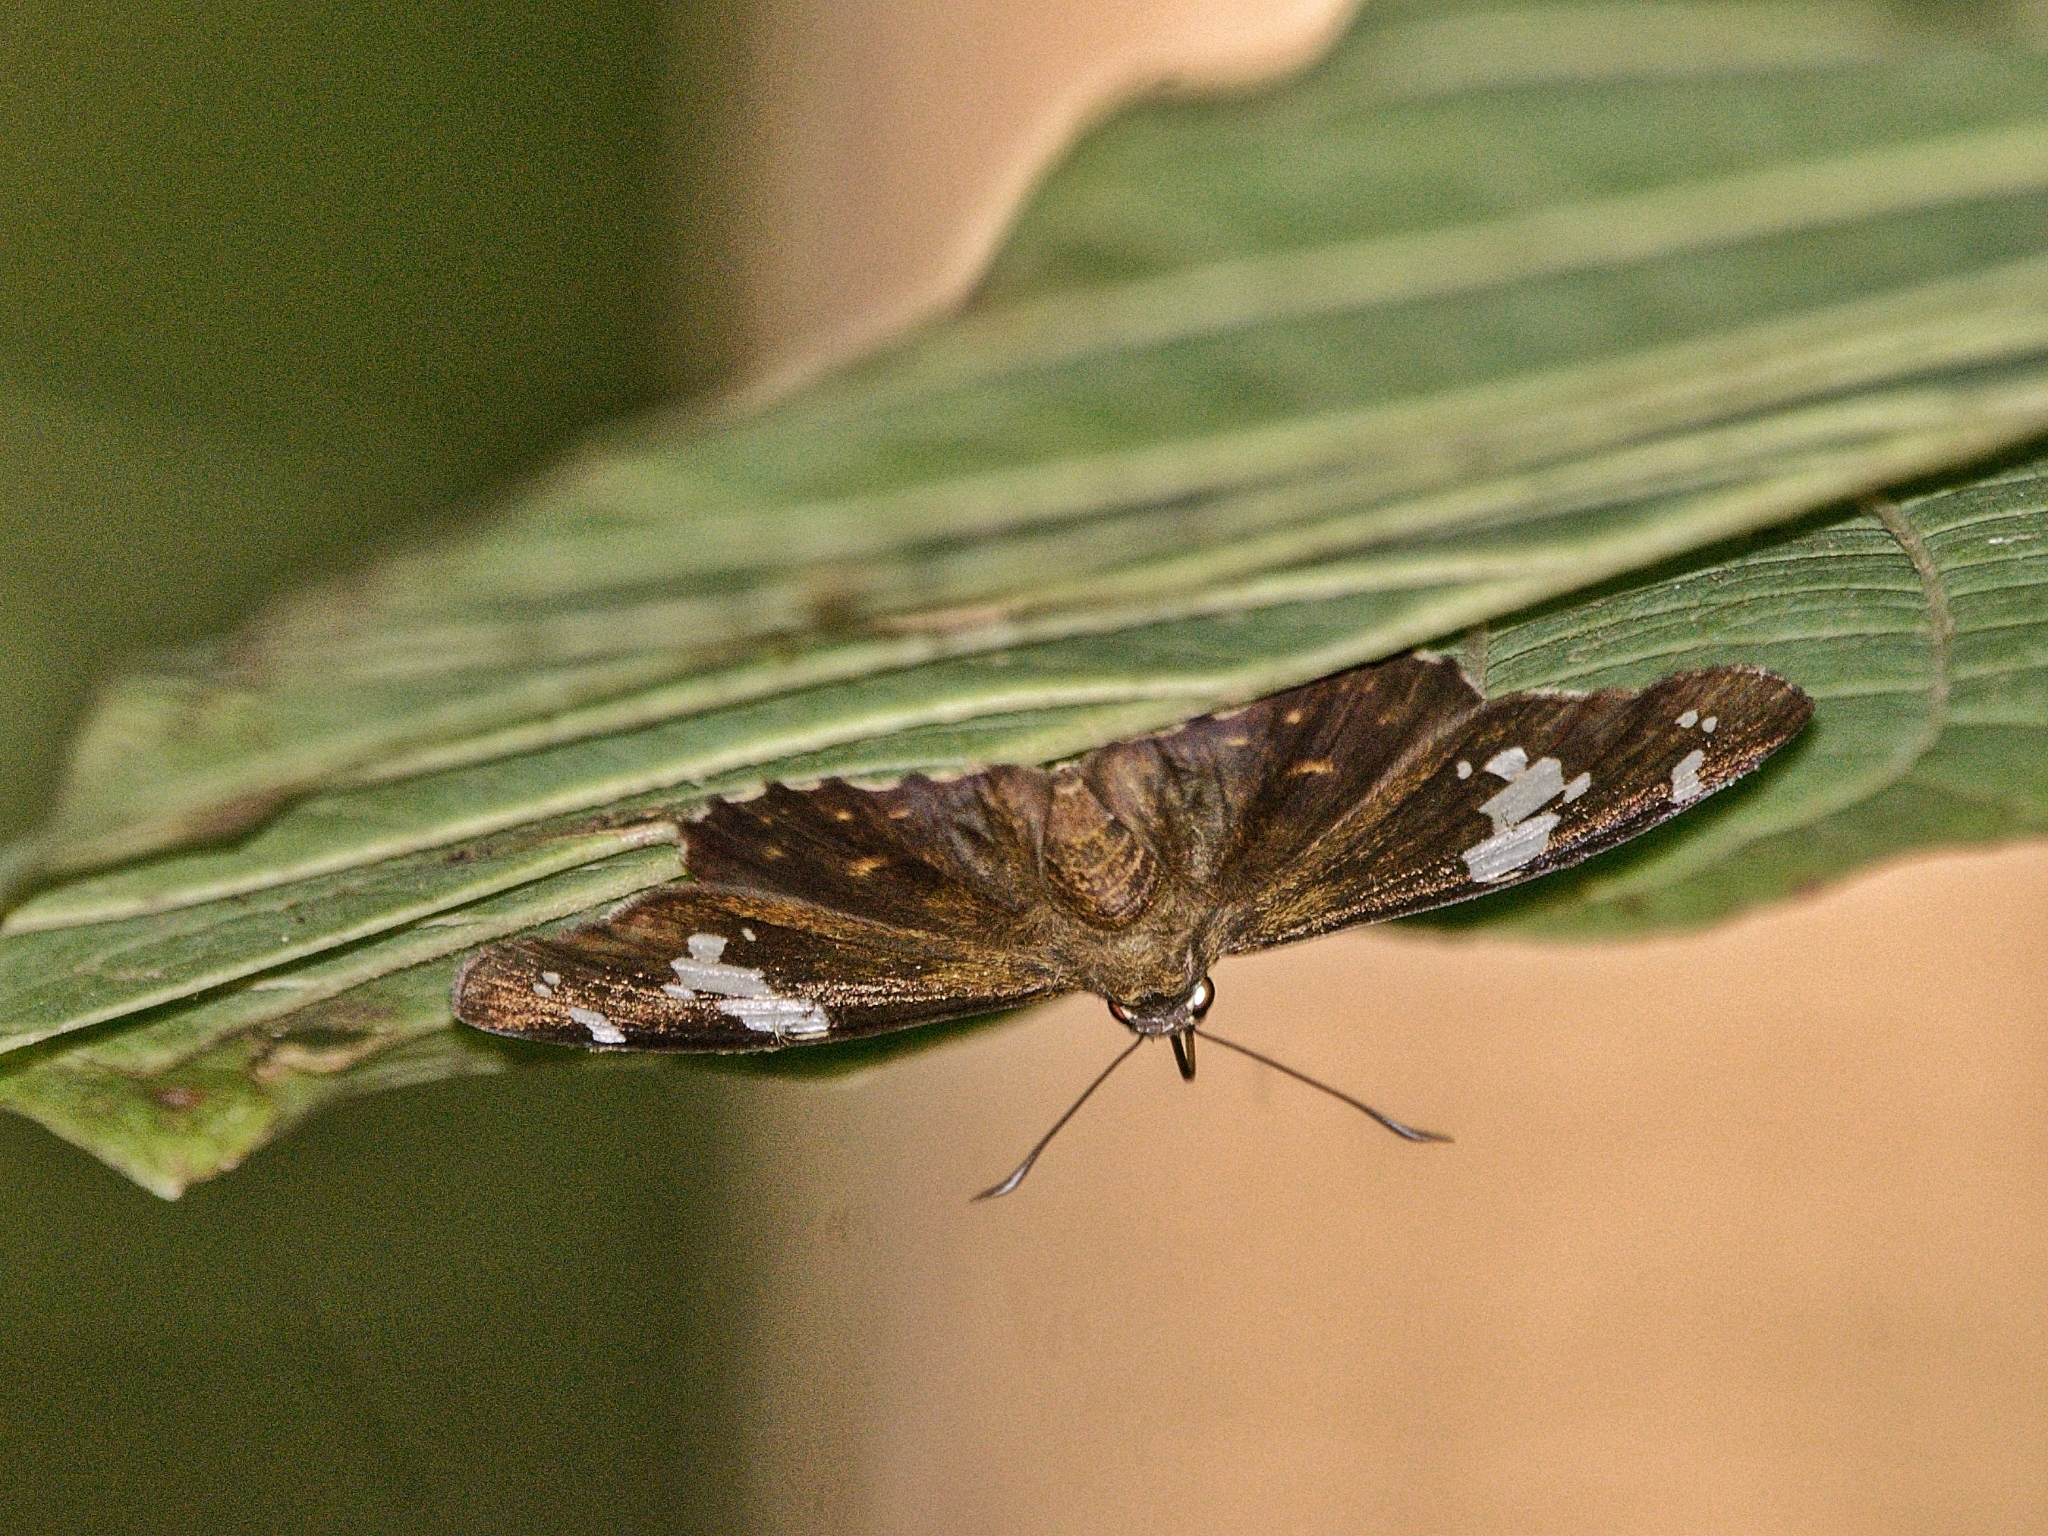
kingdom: Animalia
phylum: Arthropoda
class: Insecta
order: Lepidoptera
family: Hesperiidae
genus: Celaenorrhinus
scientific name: Celaenorrhinus leucocera
